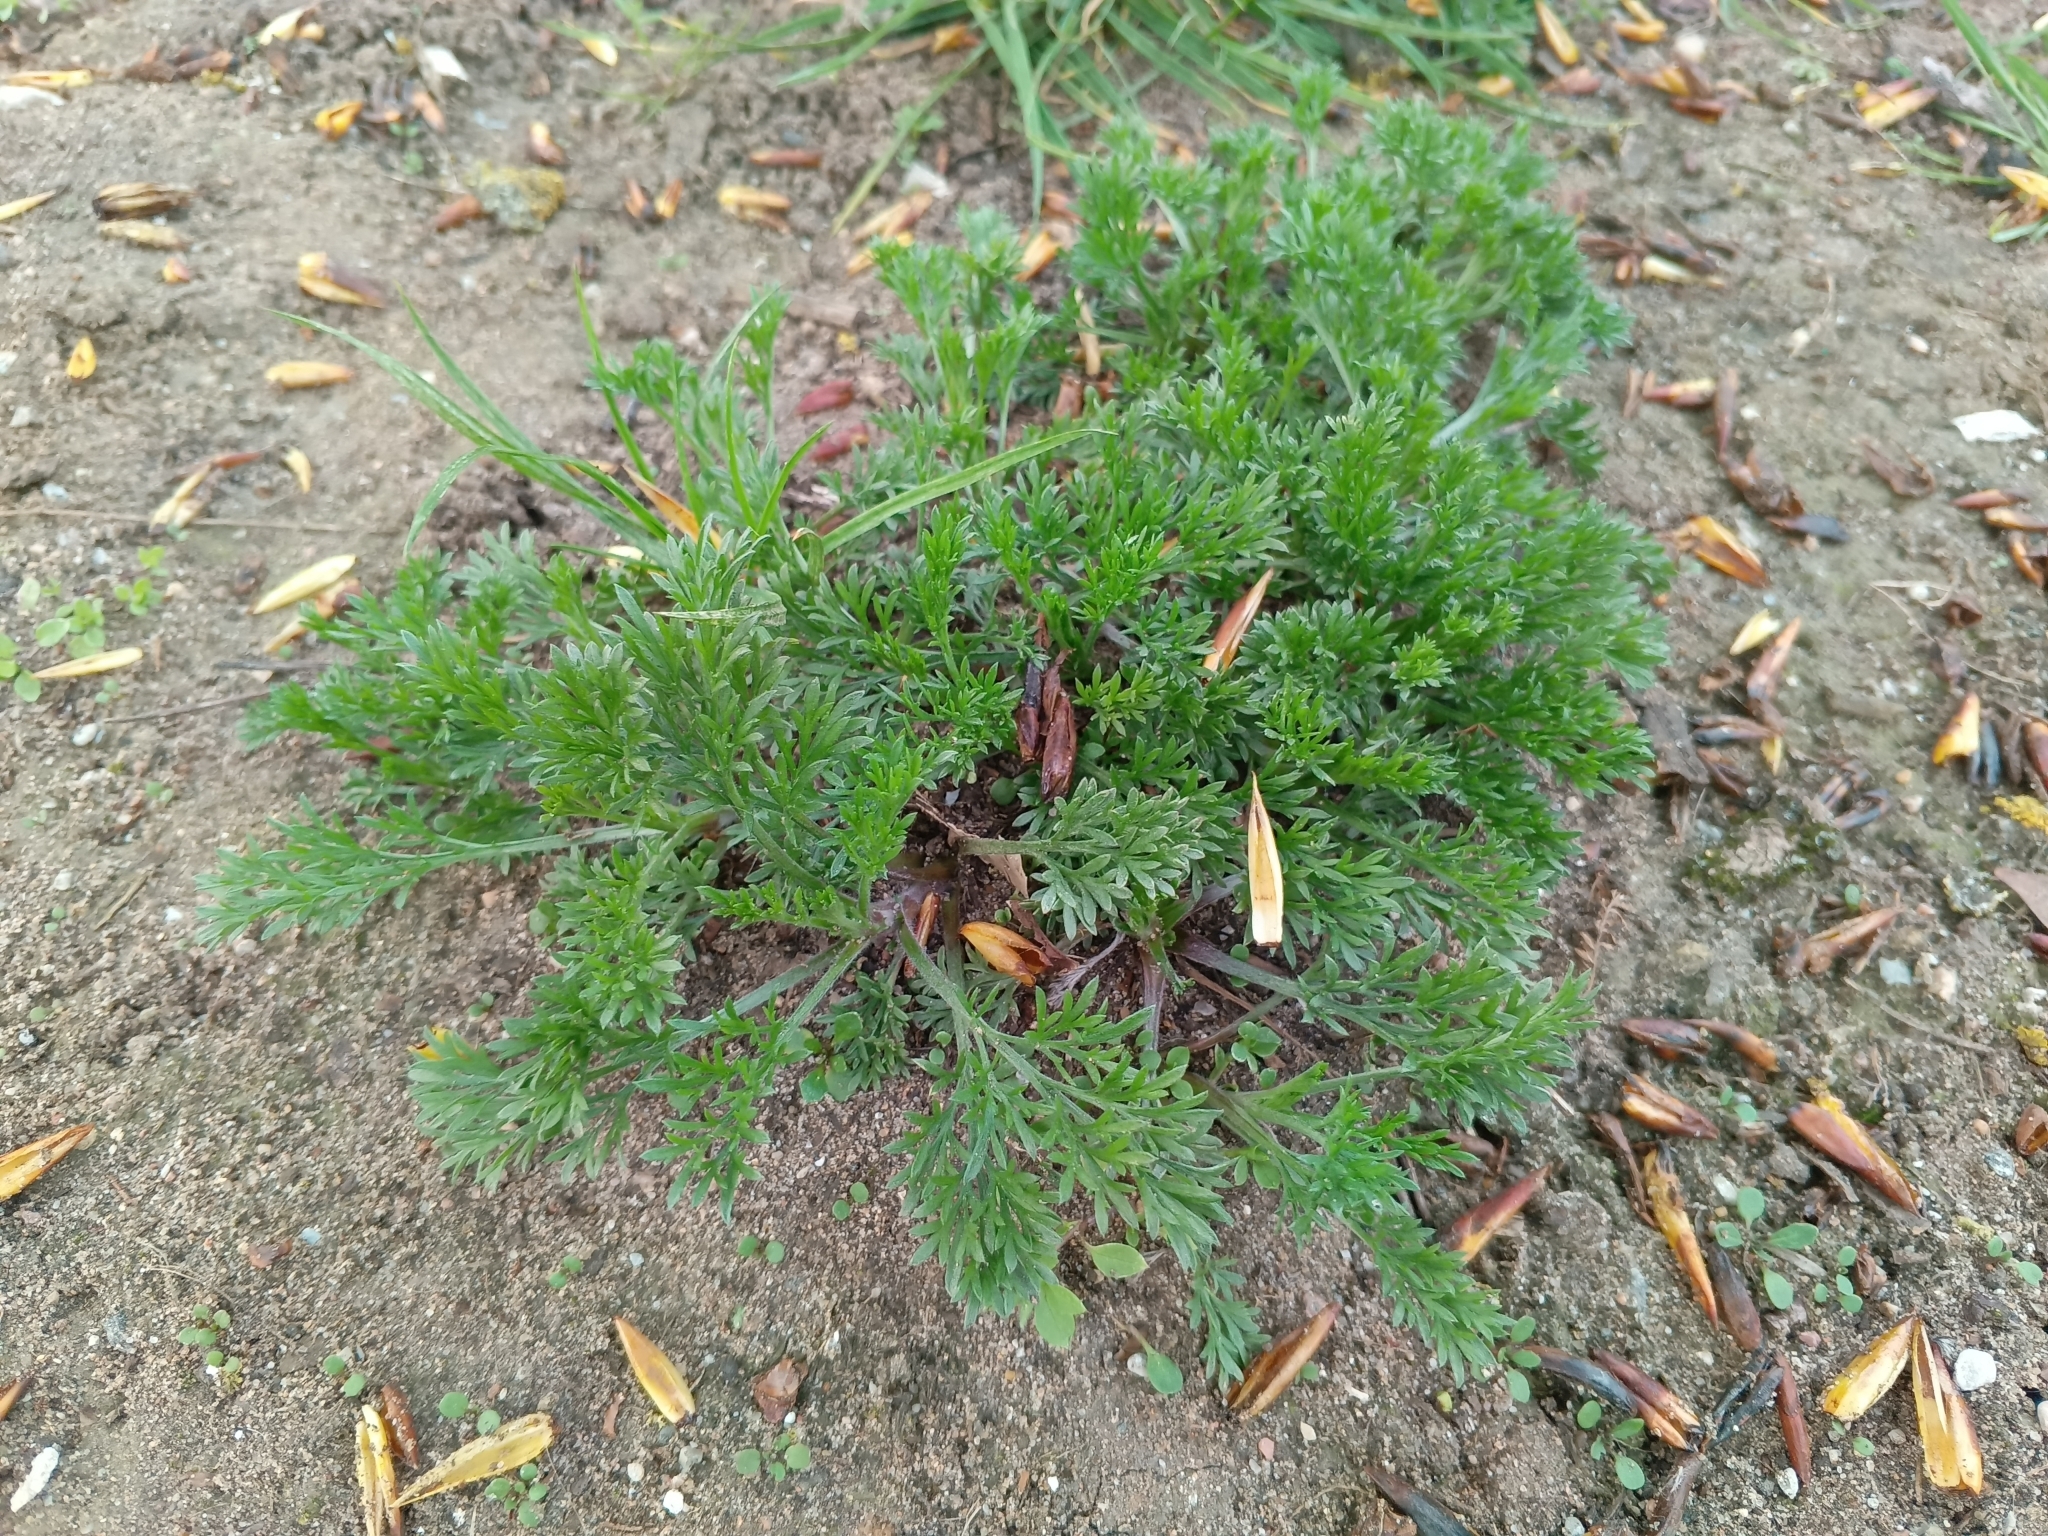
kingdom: Plantae
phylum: Tracheophyta
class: Magnoliopsida
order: Asterales
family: Asteraceae
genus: Artemisia
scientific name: Artemisia campestris
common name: Field wormwood
